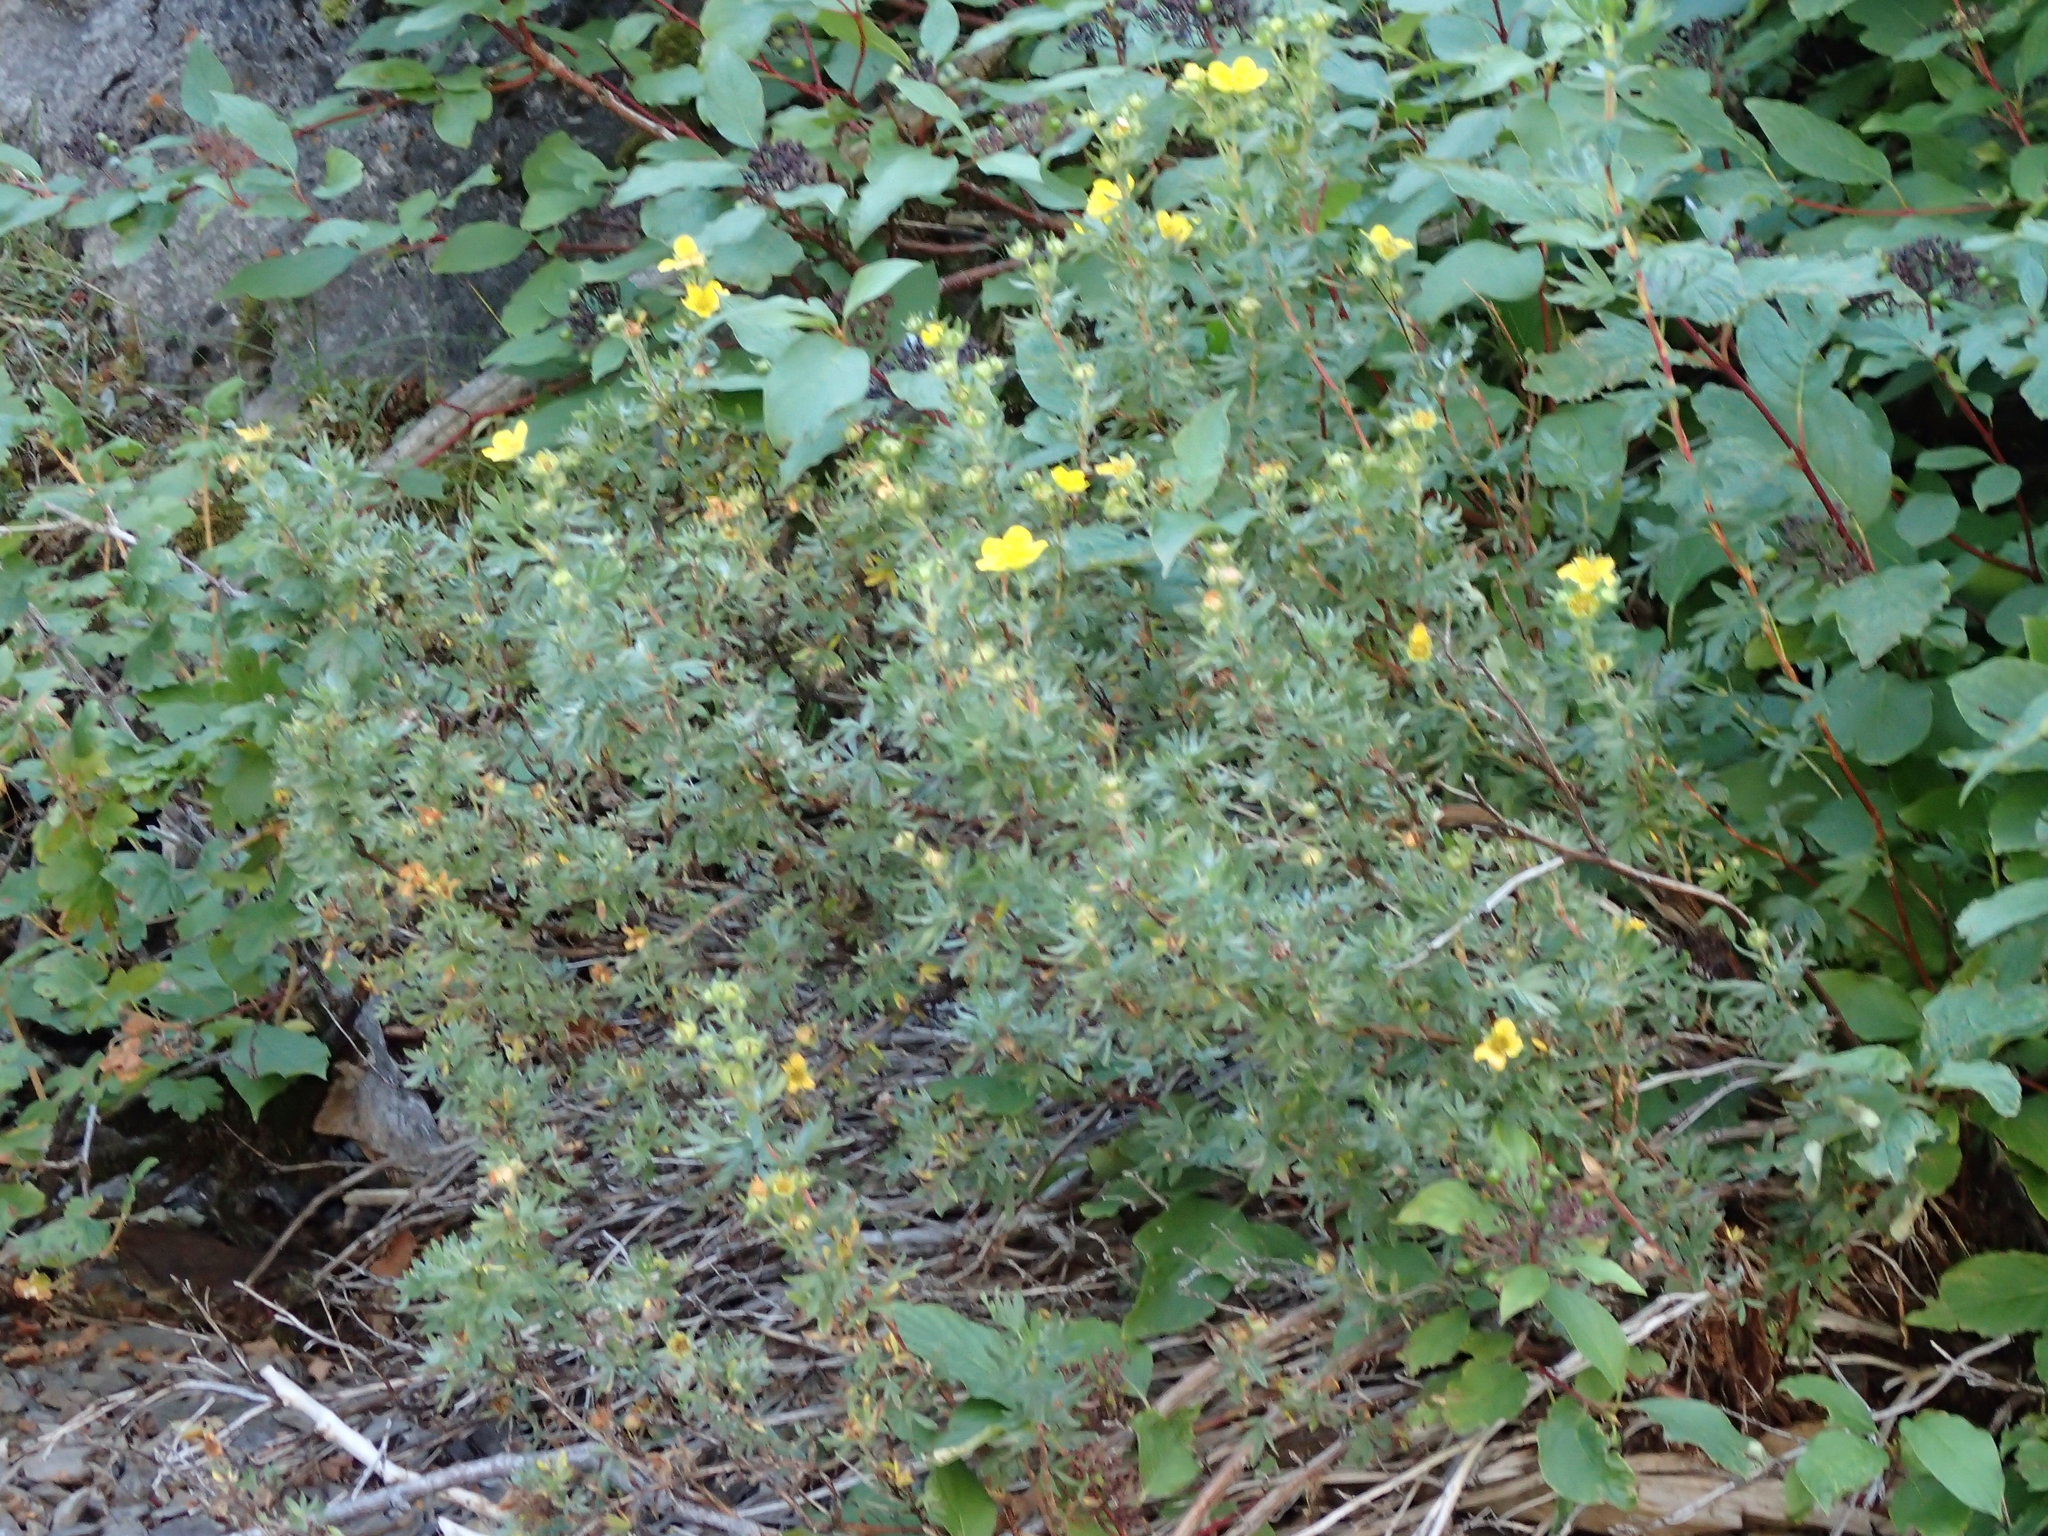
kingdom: Plantae
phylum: Tracheophyta
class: Magnoliopsida
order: Rosales
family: Rosaceae
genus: Dasiphora
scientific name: Dasiphora fruticosa
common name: Shrubby cinquefoil
